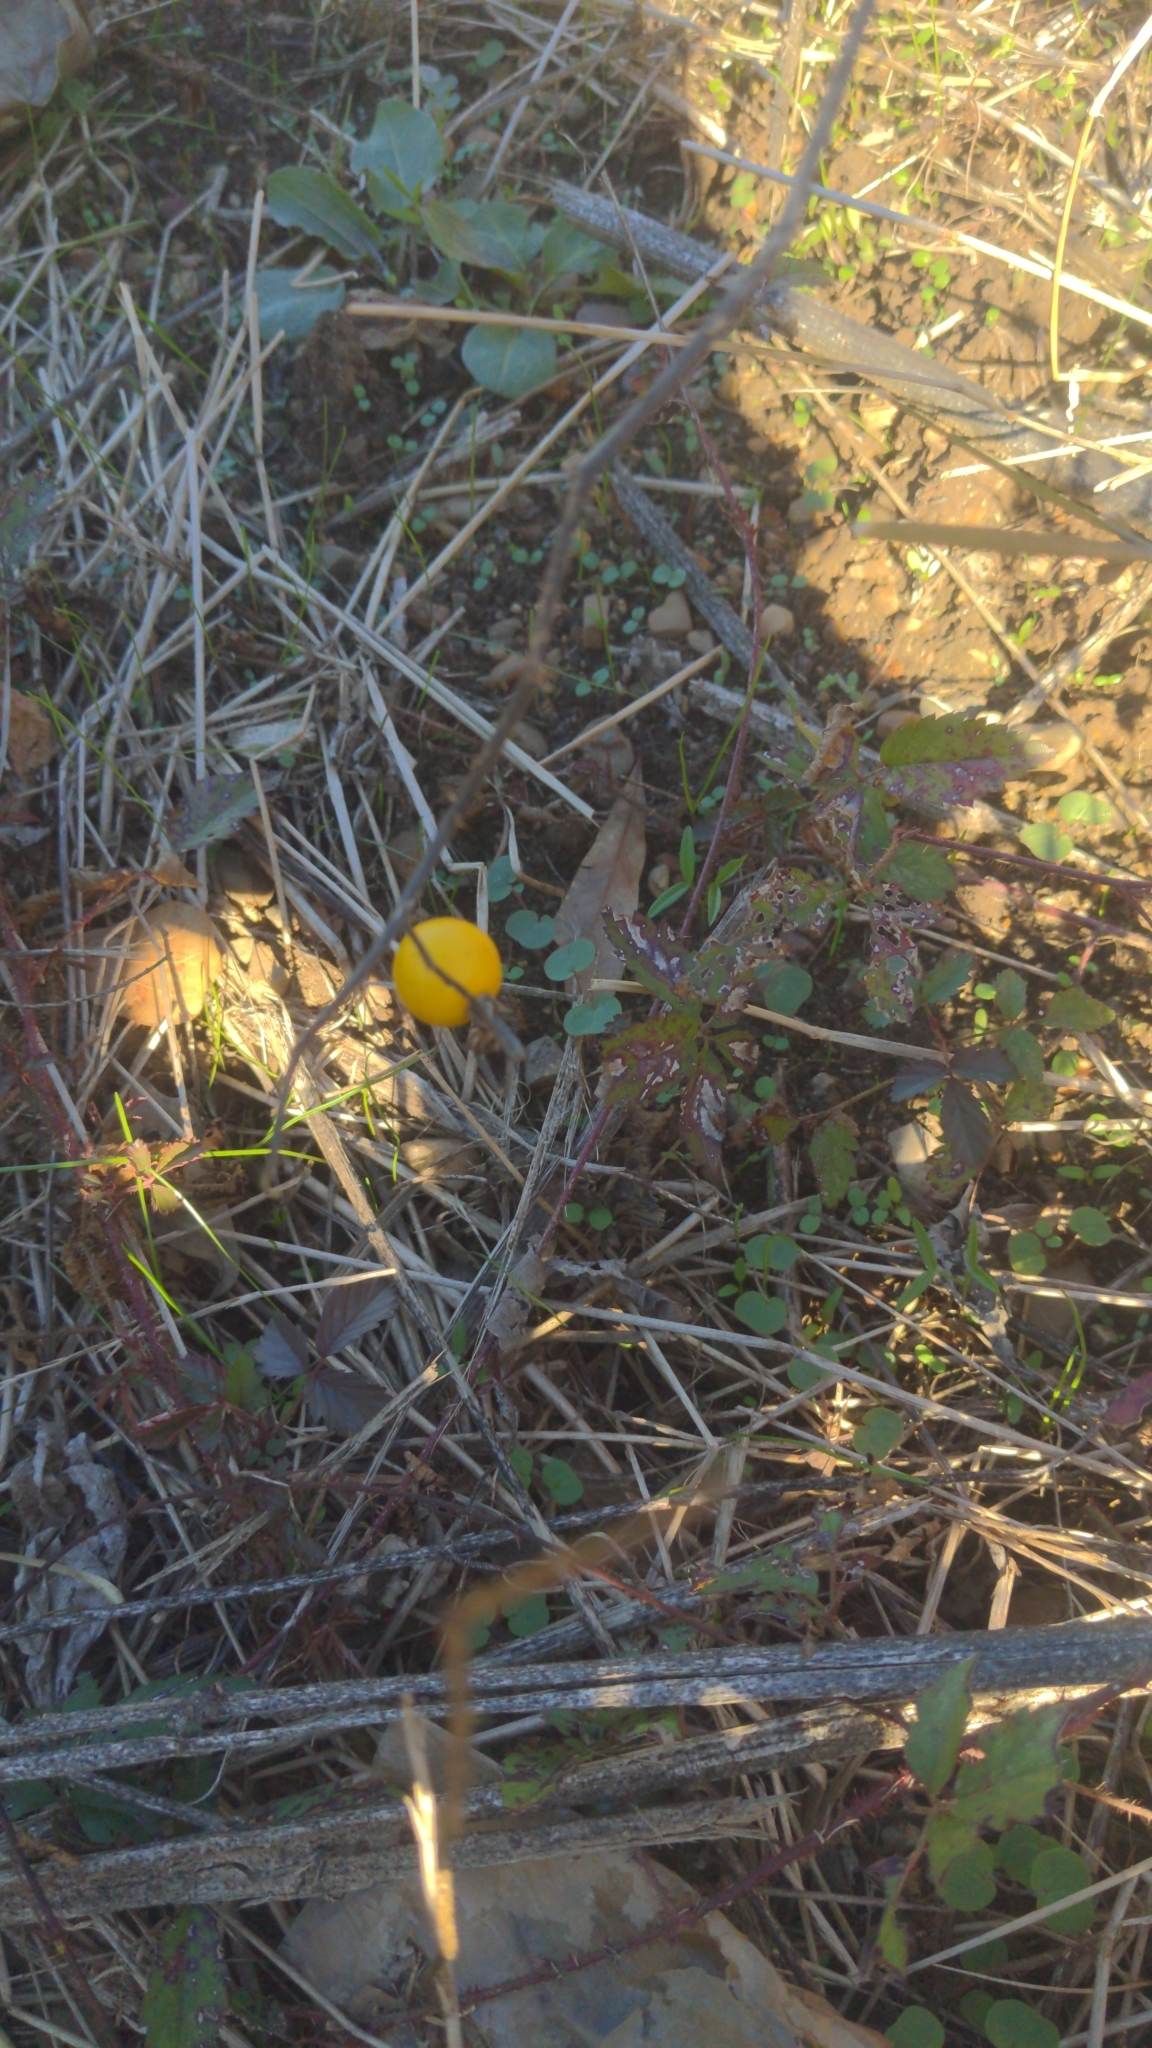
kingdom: Plantae
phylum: Tracheophyta
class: Magnoliopsida
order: Solanales
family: Solanaceae
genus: Solanum
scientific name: Solanum carolinense
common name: Horse-nettle
